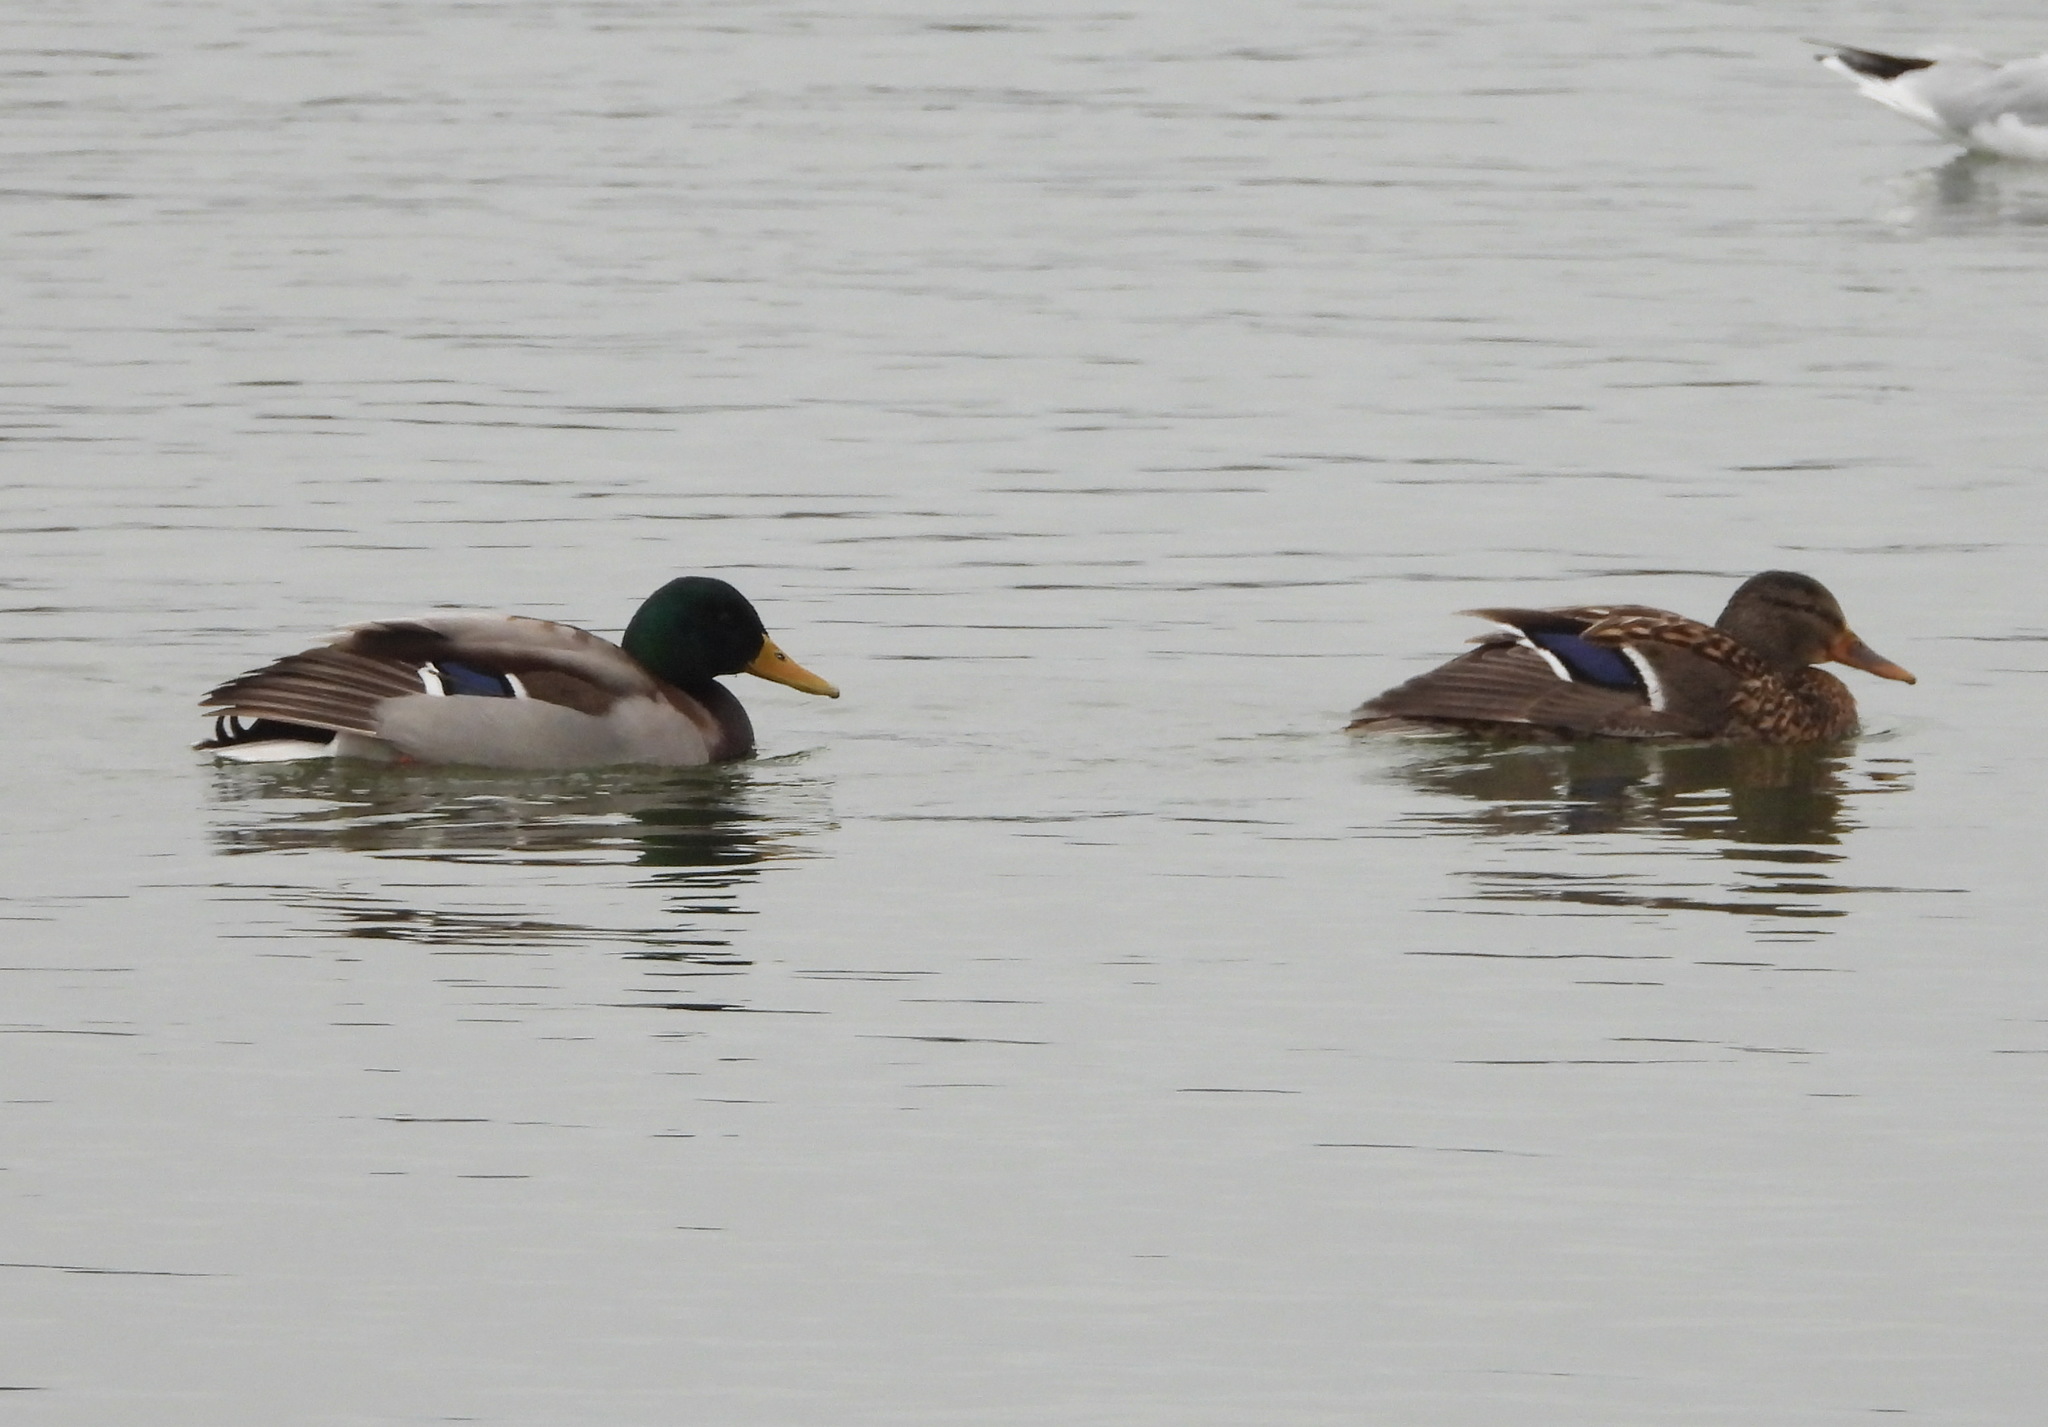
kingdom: Animalia
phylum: Chordata
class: Aves
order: Anseriformes
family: Anatidae
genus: Anas
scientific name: Anas platyrhynchos
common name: Mallard
